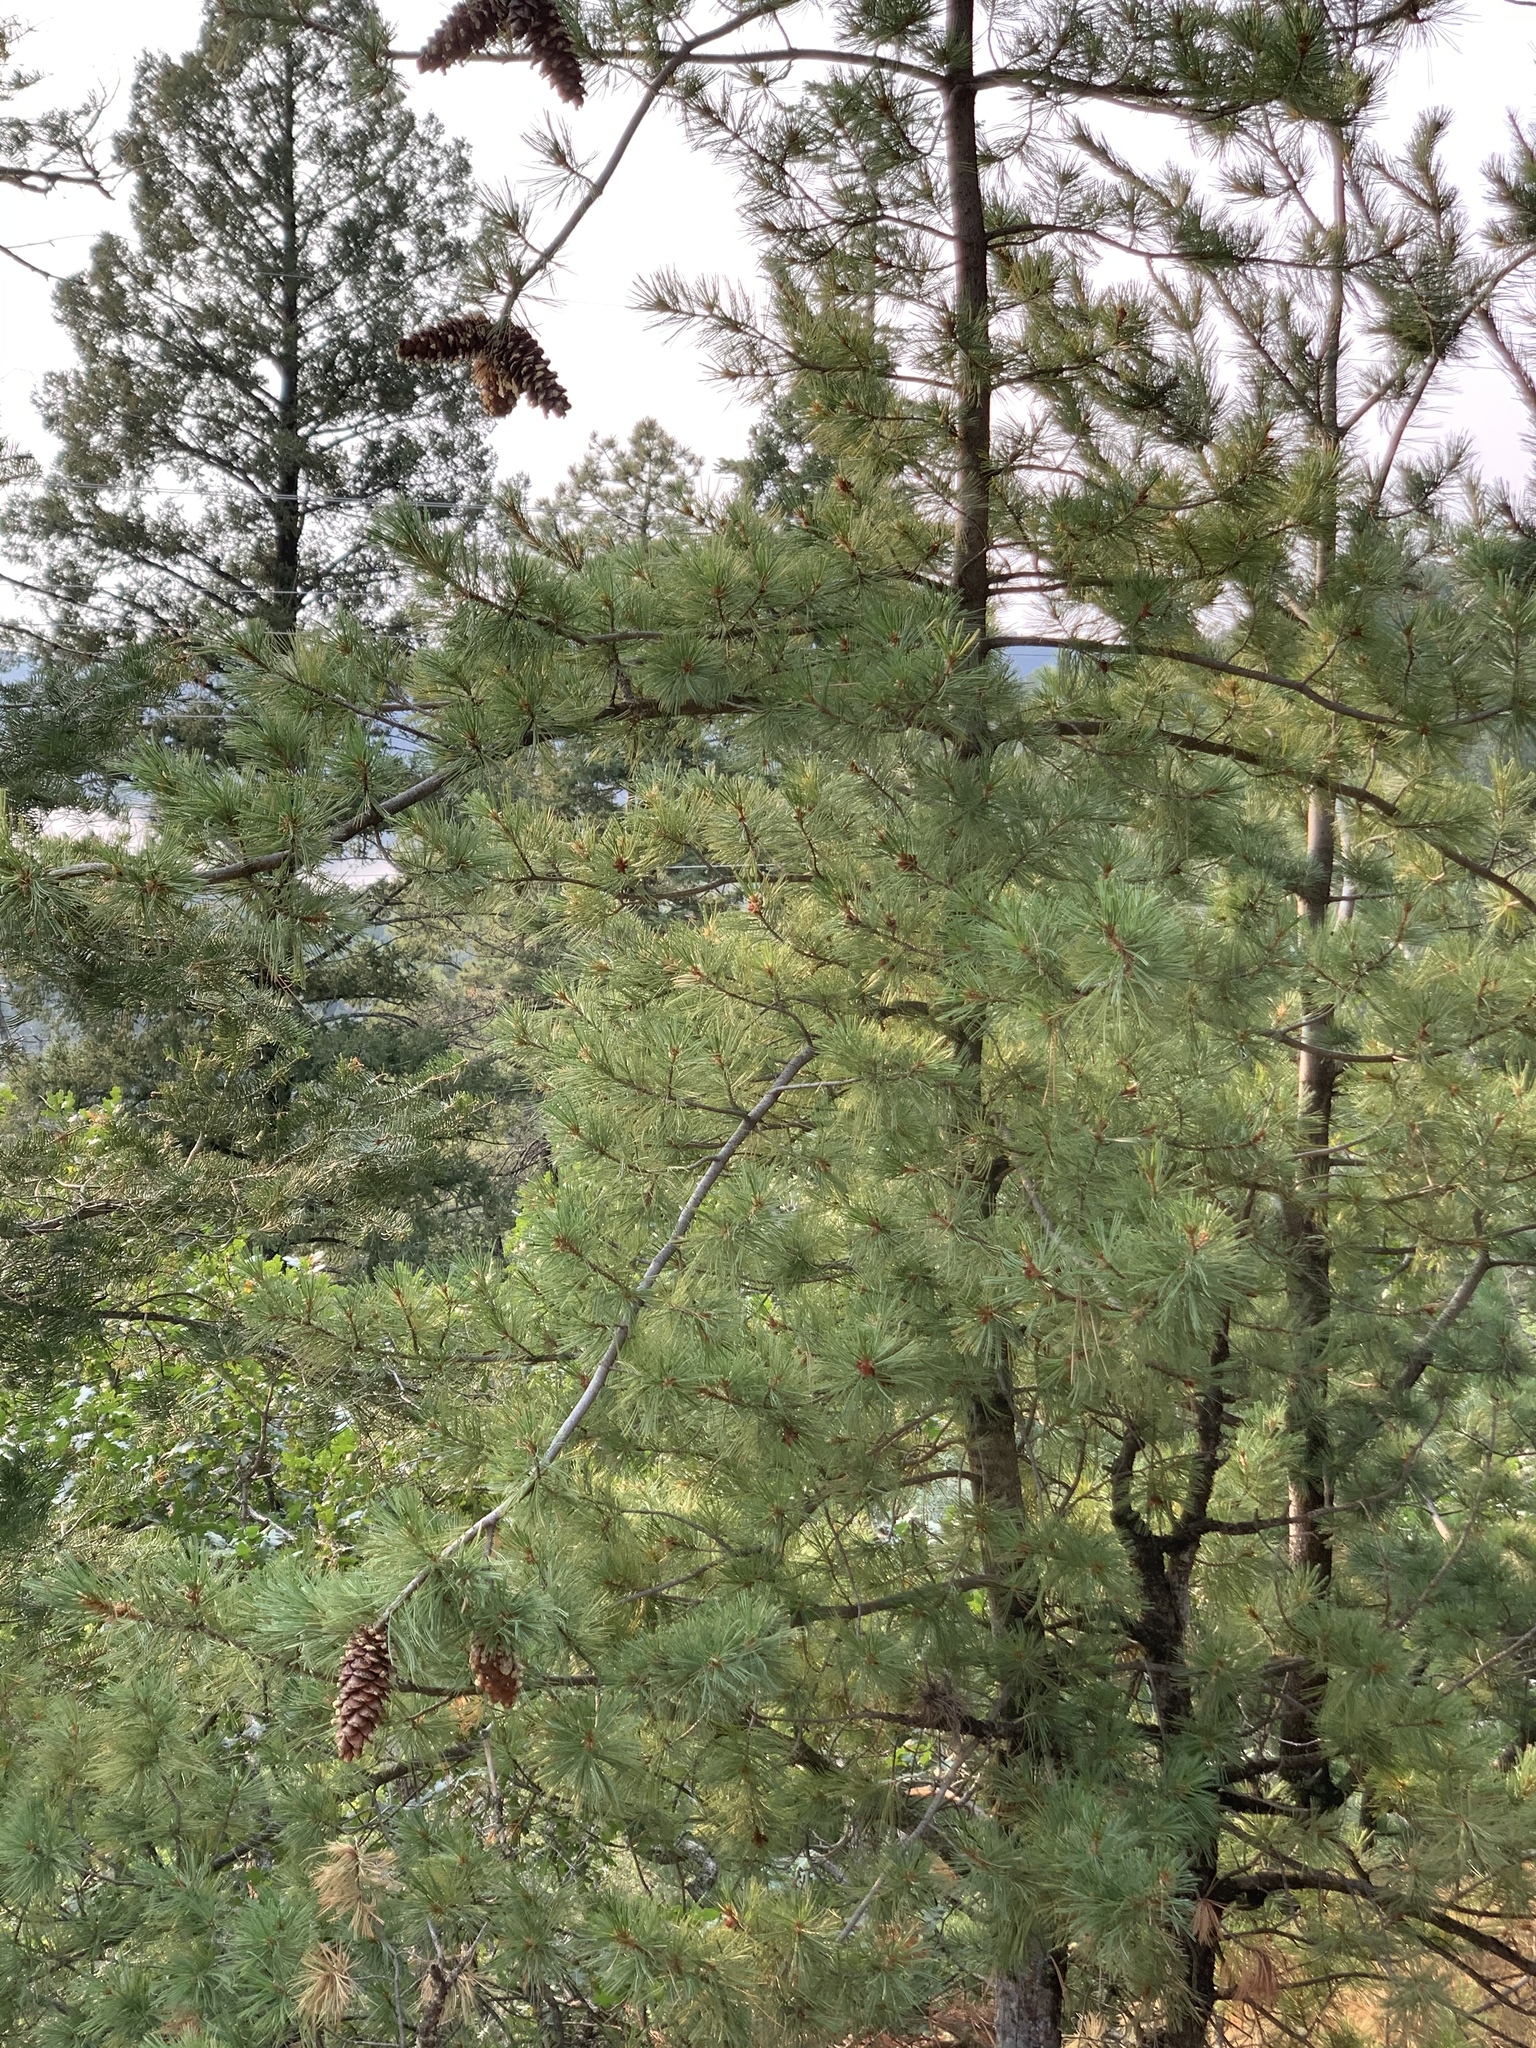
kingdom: Plantae
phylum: Tracheophyta
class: Pinopsida
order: Pinales
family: Pinaceae
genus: Pinus
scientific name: Pinus strobiformis
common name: Southwestern white pine
